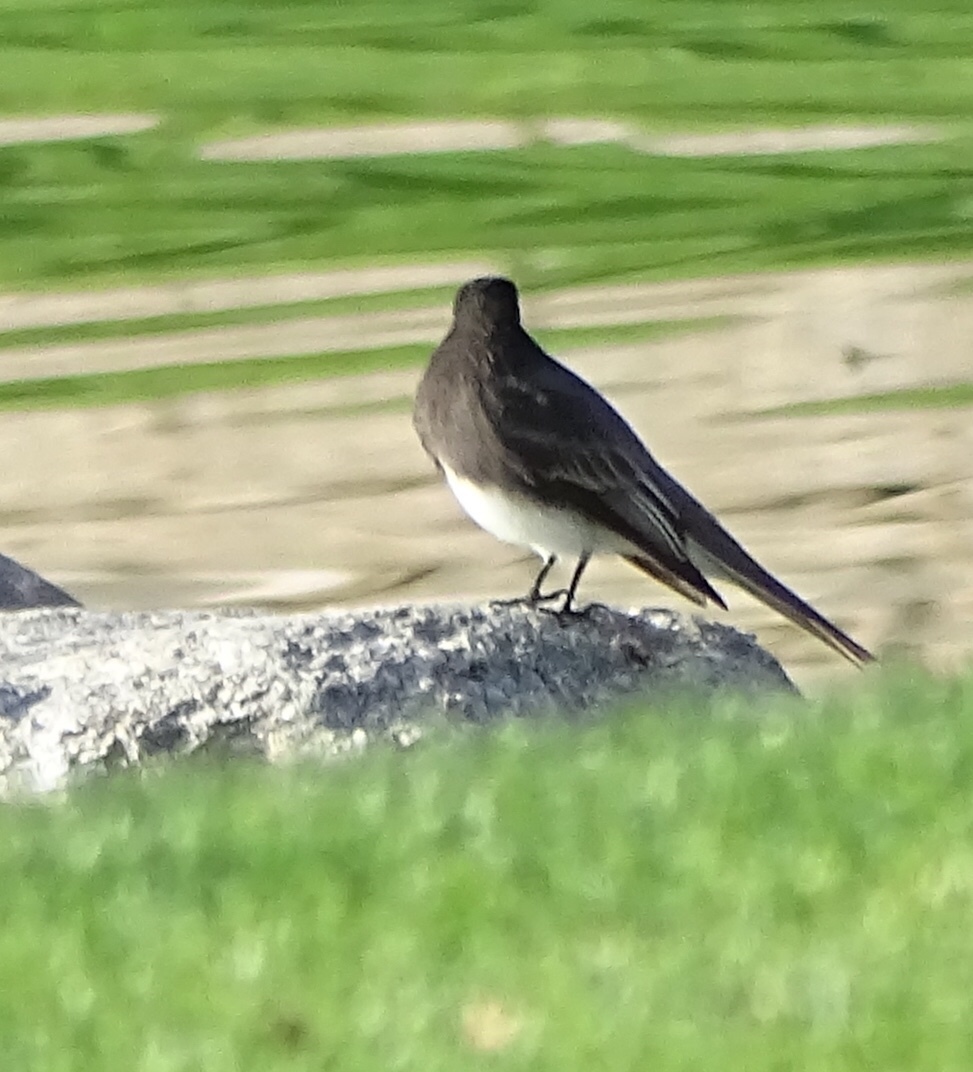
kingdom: Animalia
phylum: Chordata
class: Aves
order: Passeriformes
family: Tyrannidae
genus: Sayornis
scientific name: Sayornis nigricans
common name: Black phoebe
